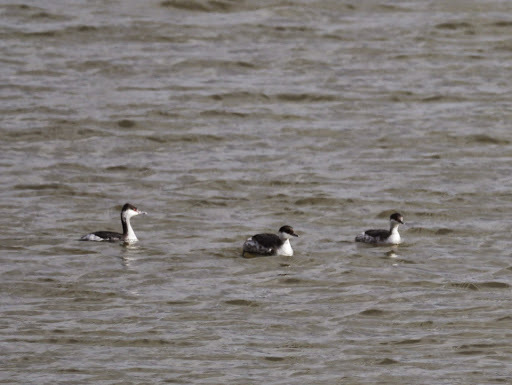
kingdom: Animalia
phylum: Chordata
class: Aves
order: Podicipediformes
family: Podicipedidae
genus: Podiceps
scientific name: Podiceps auritus
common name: Horned grebe
